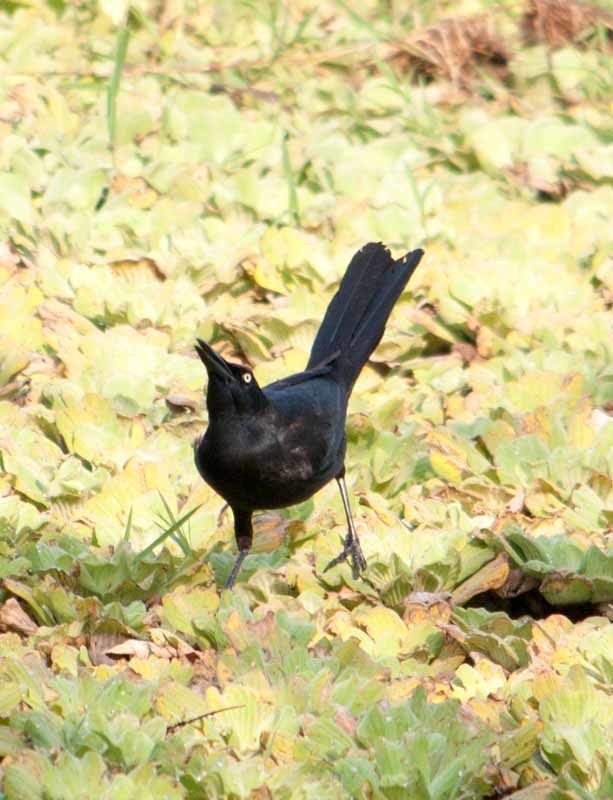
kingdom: Animalia
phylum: Chordata
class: Aves
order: Passeriformes
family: Icteridae
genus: Quiscalus
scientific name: Quiscalus mexicanus
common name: Great-tailed grackle
